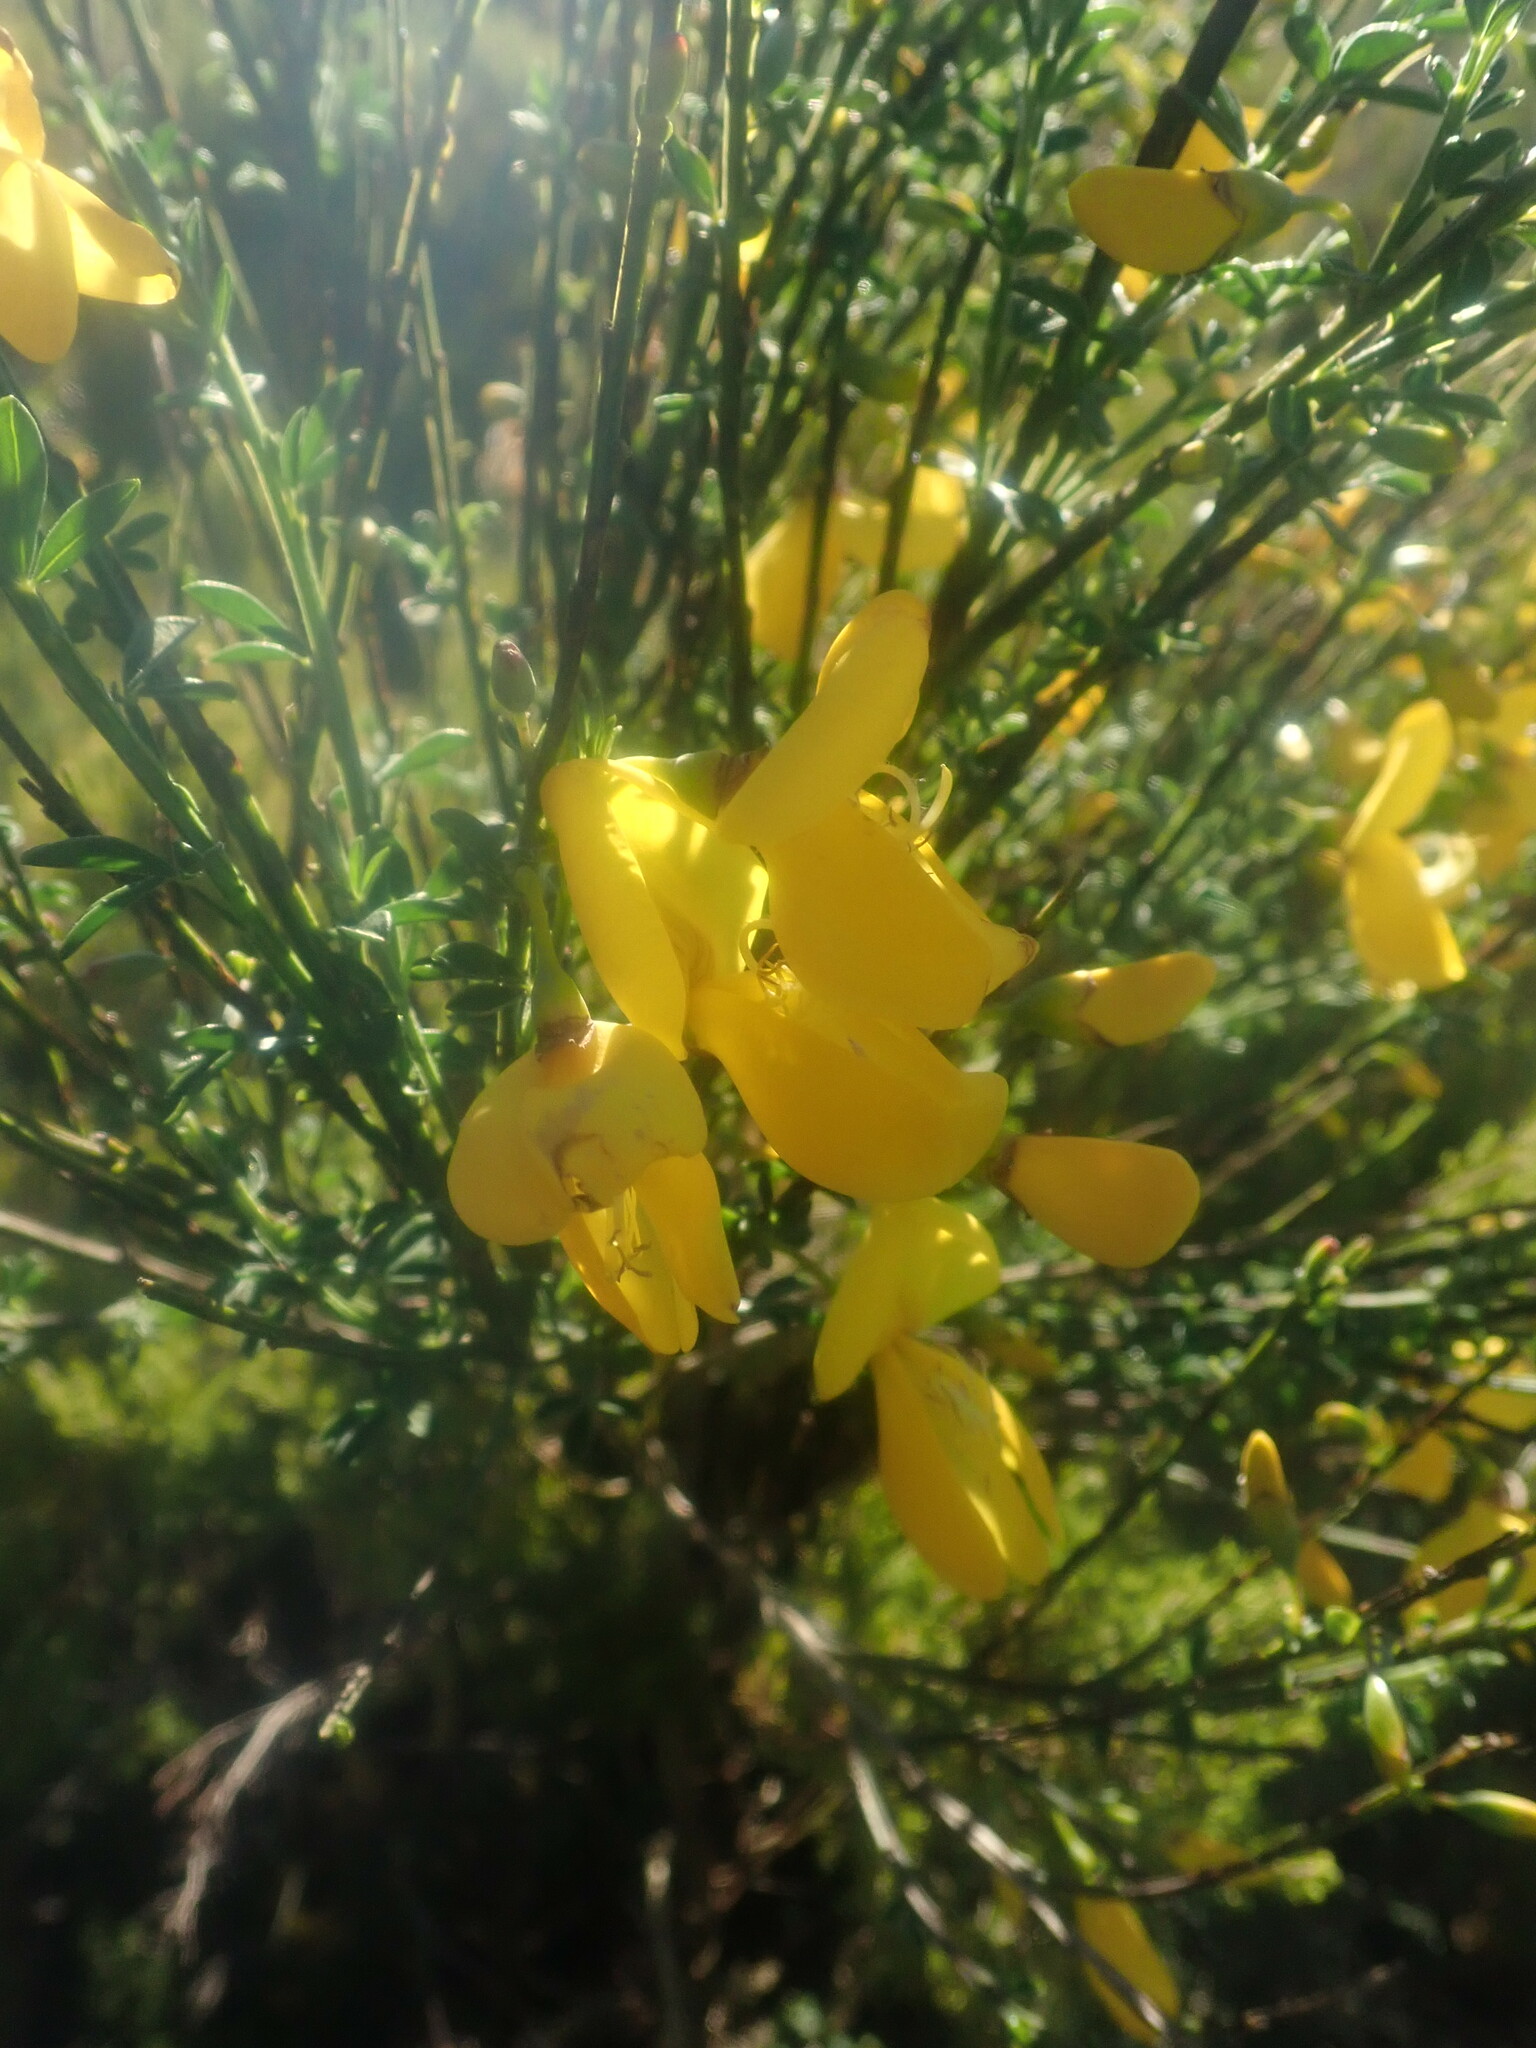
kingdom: Plantae
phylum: Tracheophyta
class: Magnoliopsida
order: Fabales
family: Fabaceae
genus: Cytisus
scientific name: Cytisus scoparius
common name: Scotch broom
